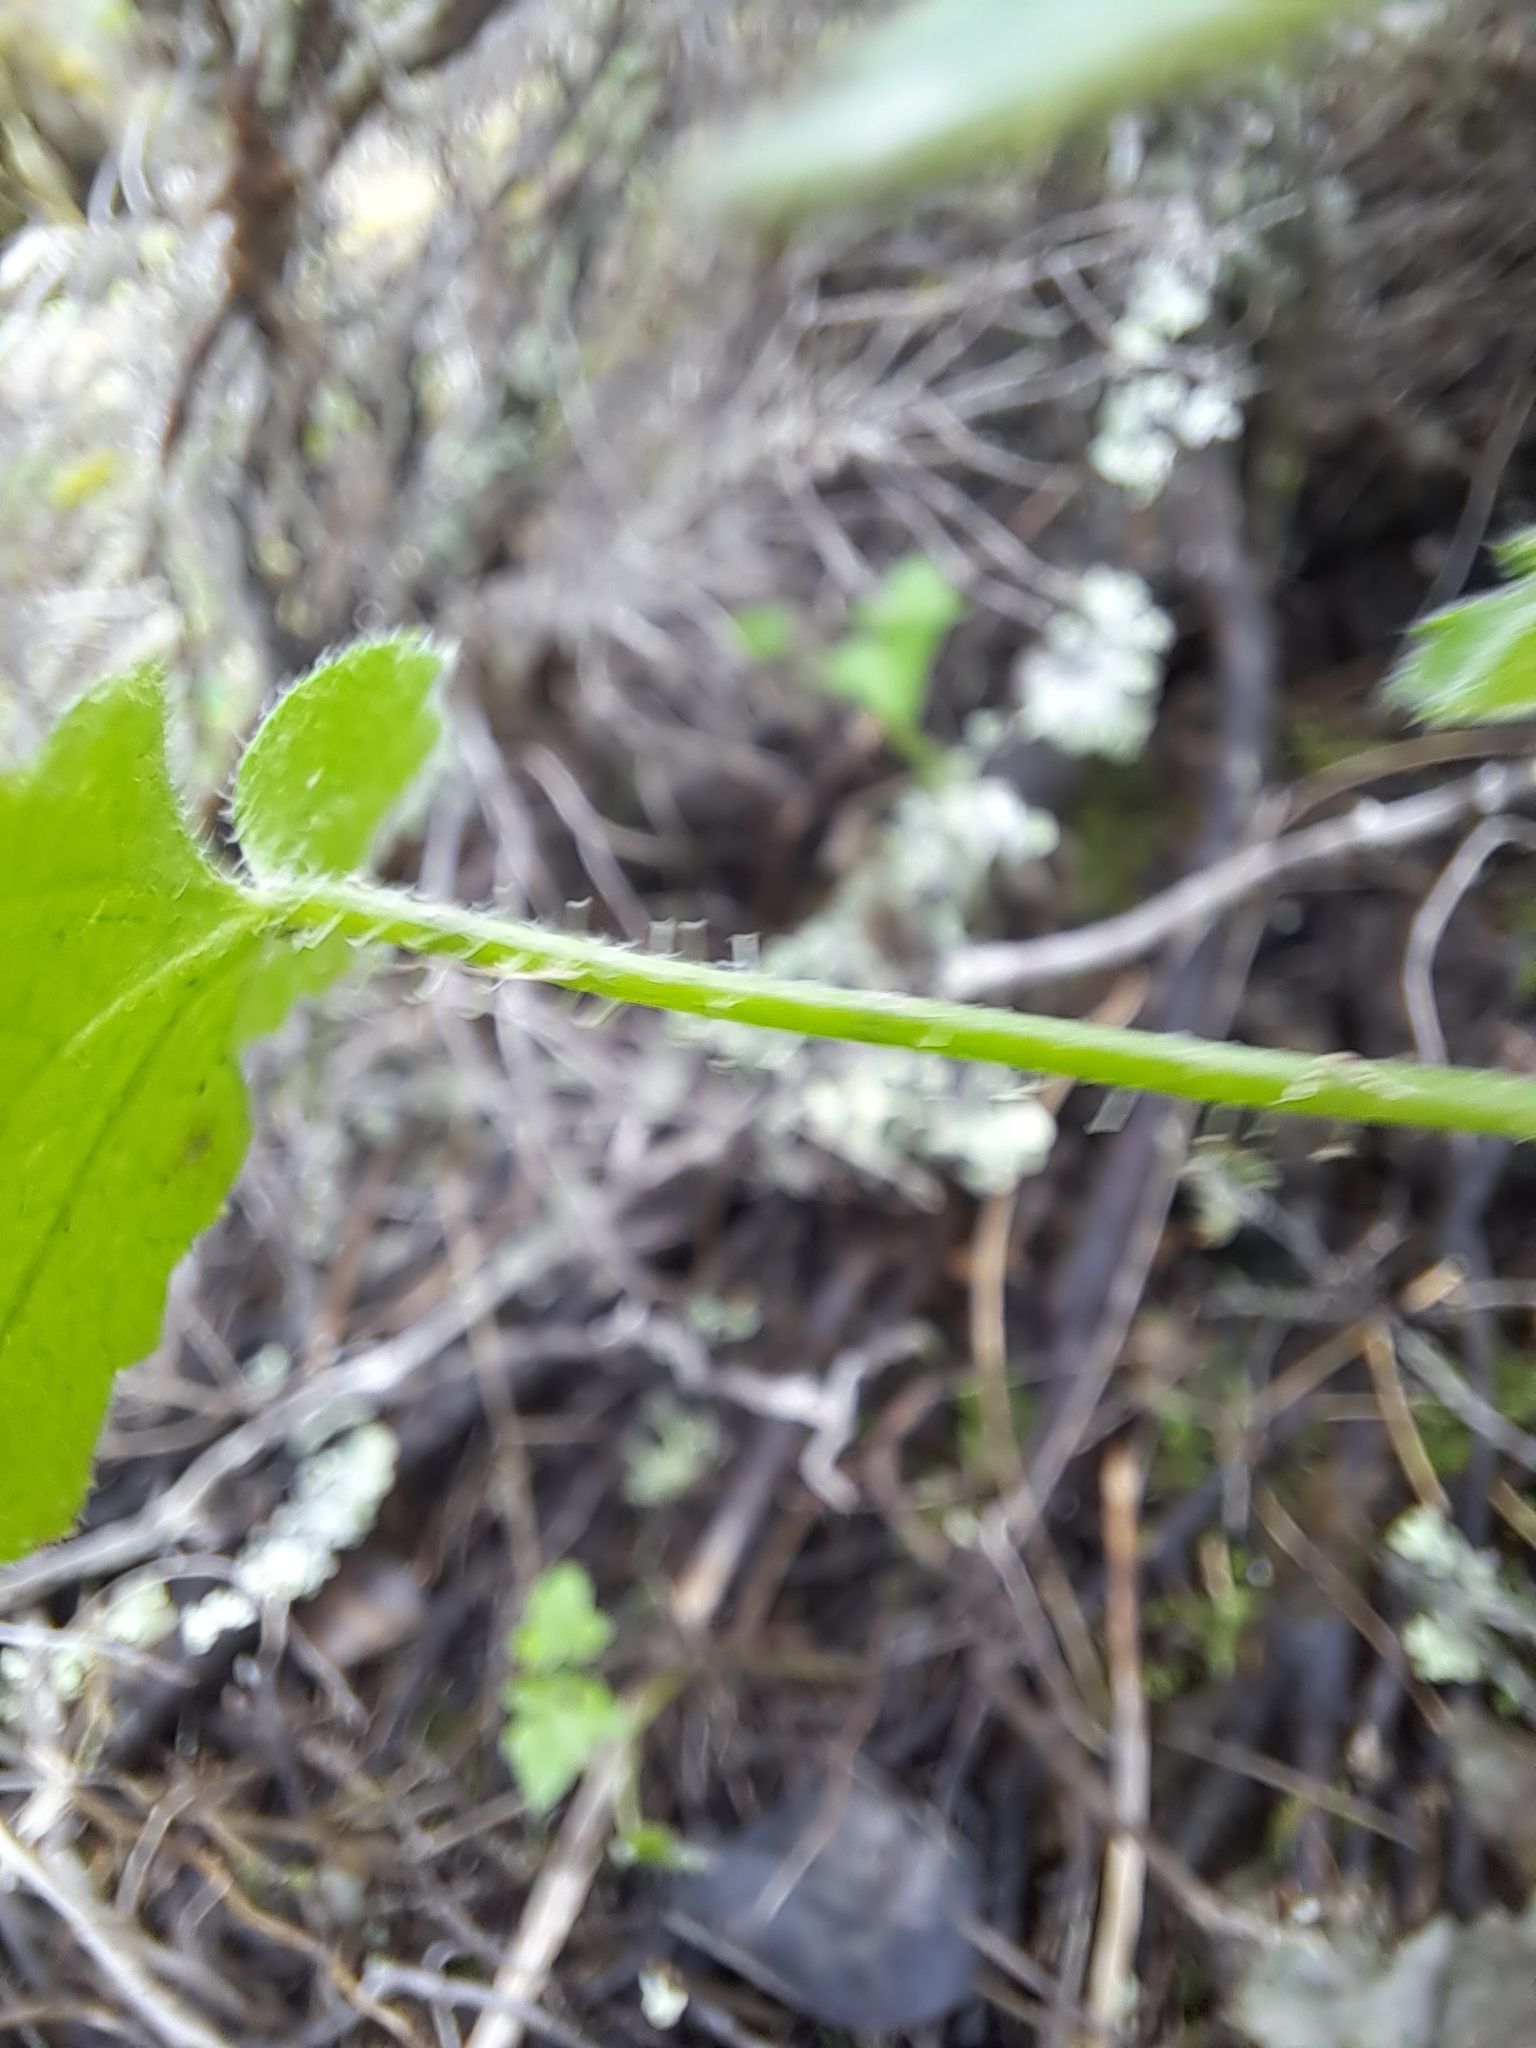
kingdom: Plantae
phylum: Tracheophyta
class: Magnoliopsida
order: Apiales
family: Apiaceae
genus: Drusa
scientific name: Drusa glandulosa
